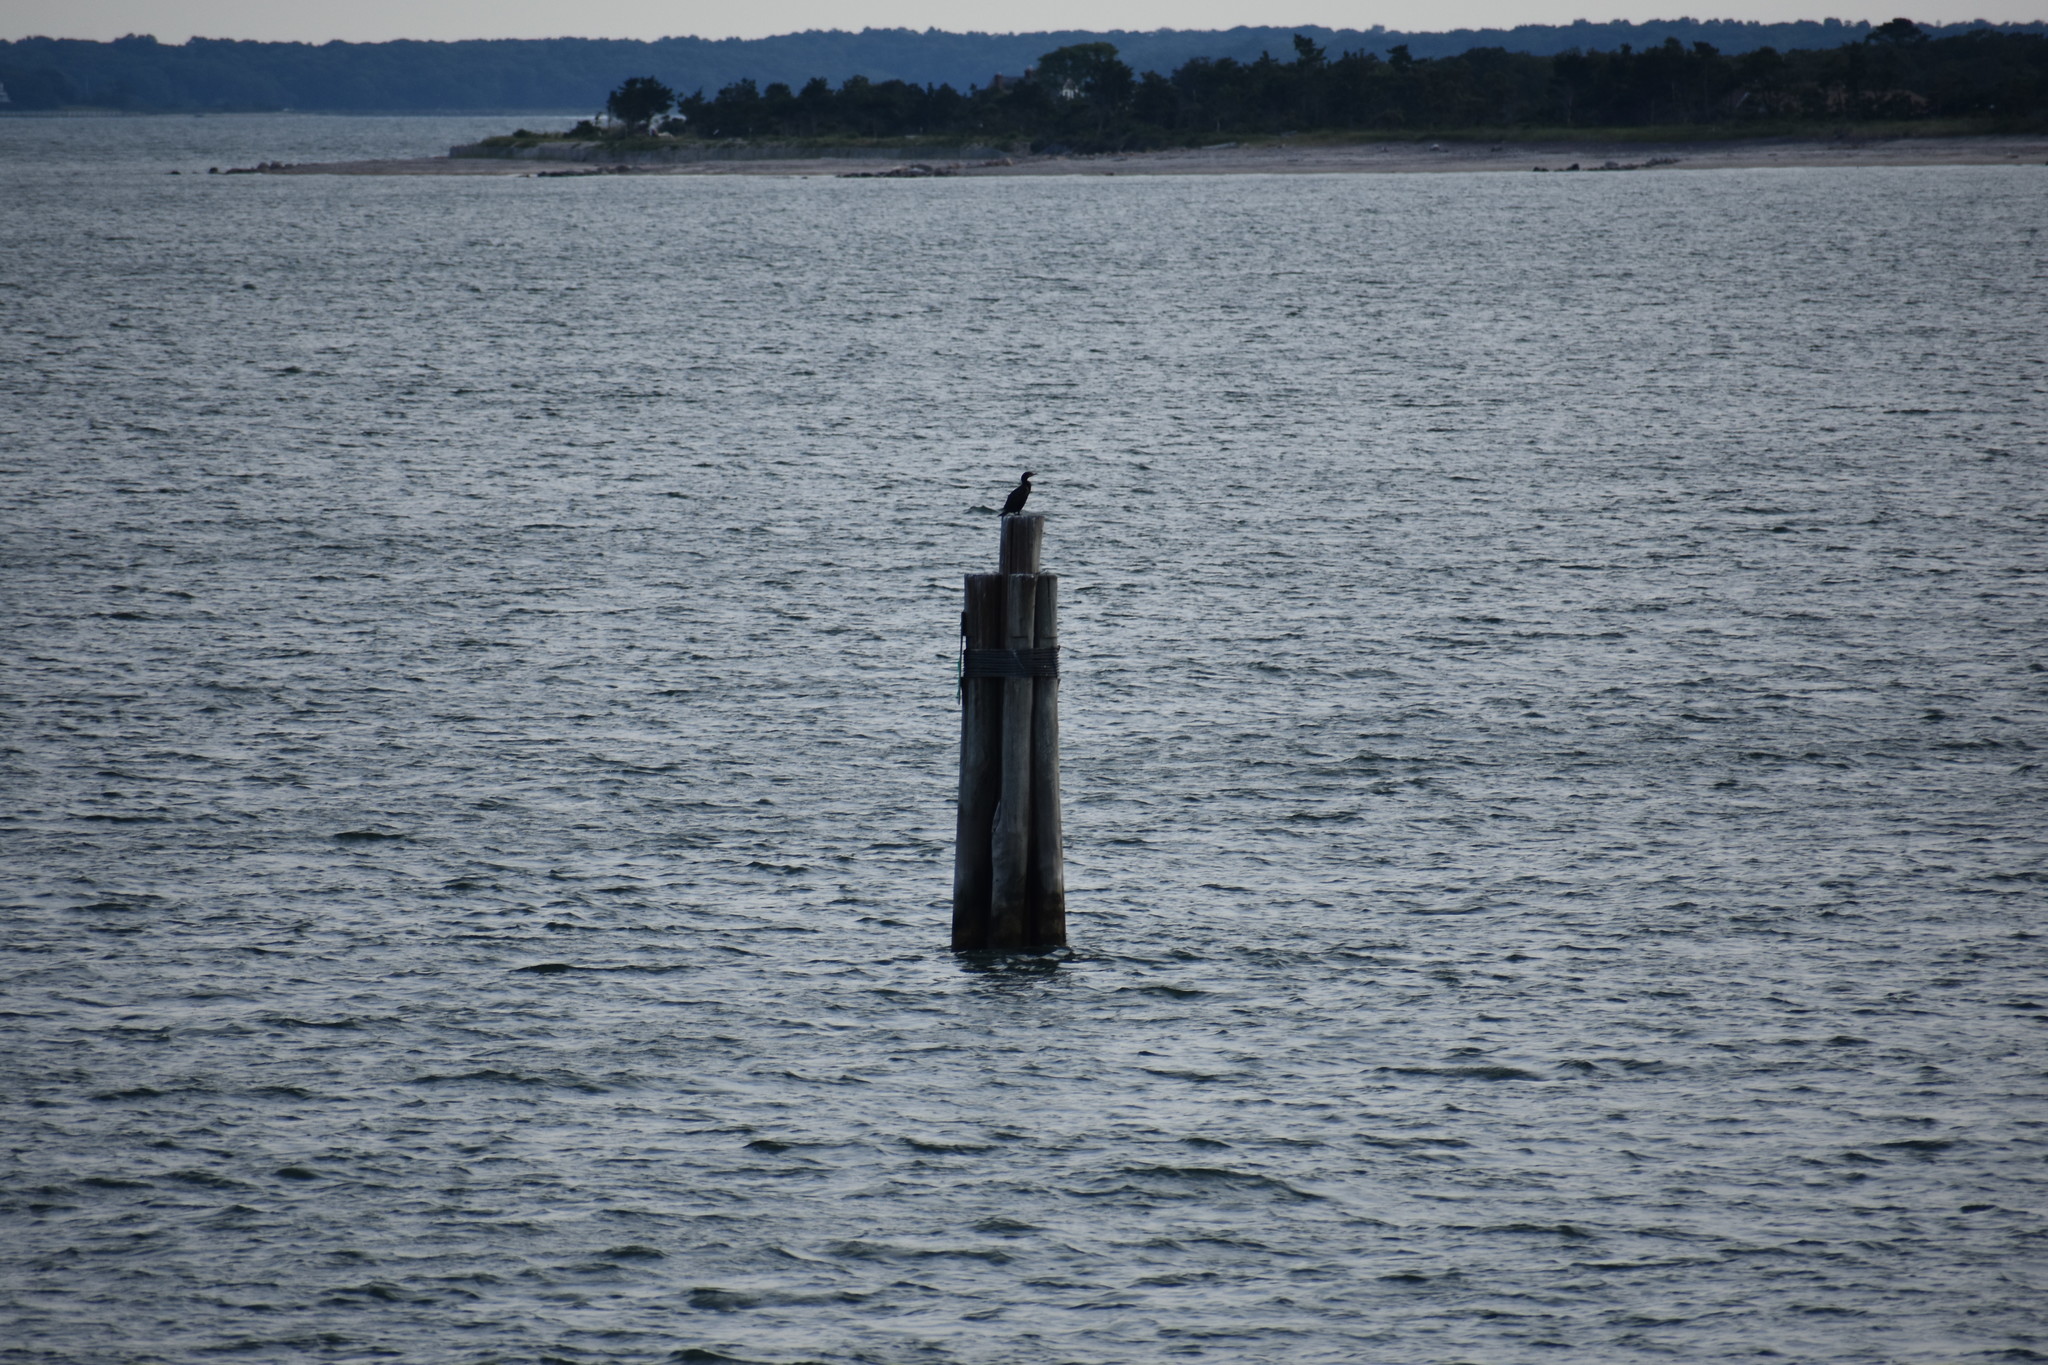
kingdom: Animalia
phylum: Chordata
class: Aves
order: Suliformes
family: Phalacrocoracidae
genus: Phalacrocorax
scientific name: Phalacrocorax auritus
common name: Double-crested cormorant
